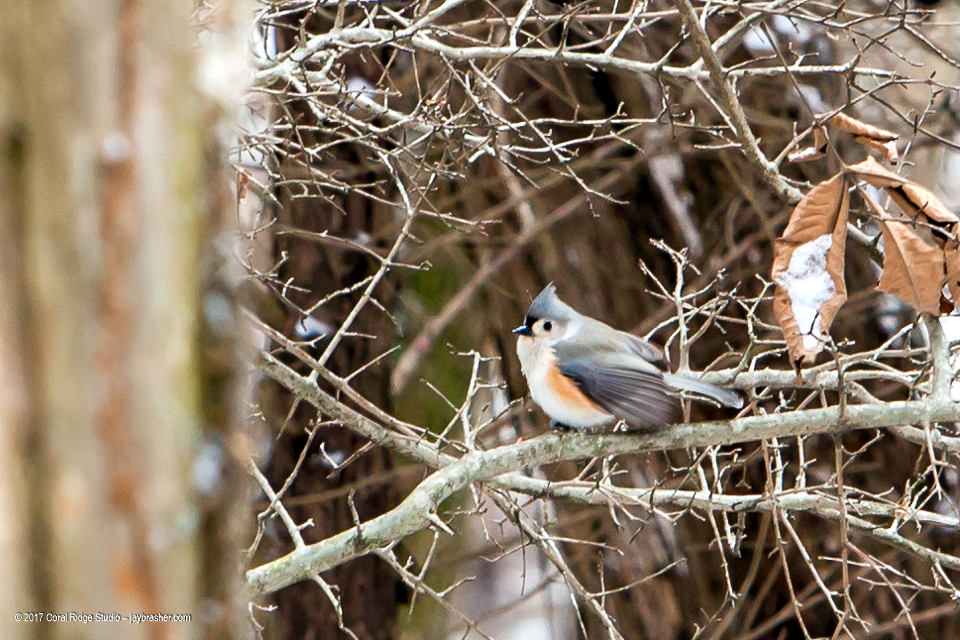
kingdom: Animalia
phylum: Chordata
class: Aves
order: Passeriformes
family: Paridae
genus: Baeolophus
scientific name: Baeolophus bicolor
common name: Tufted titmouse
